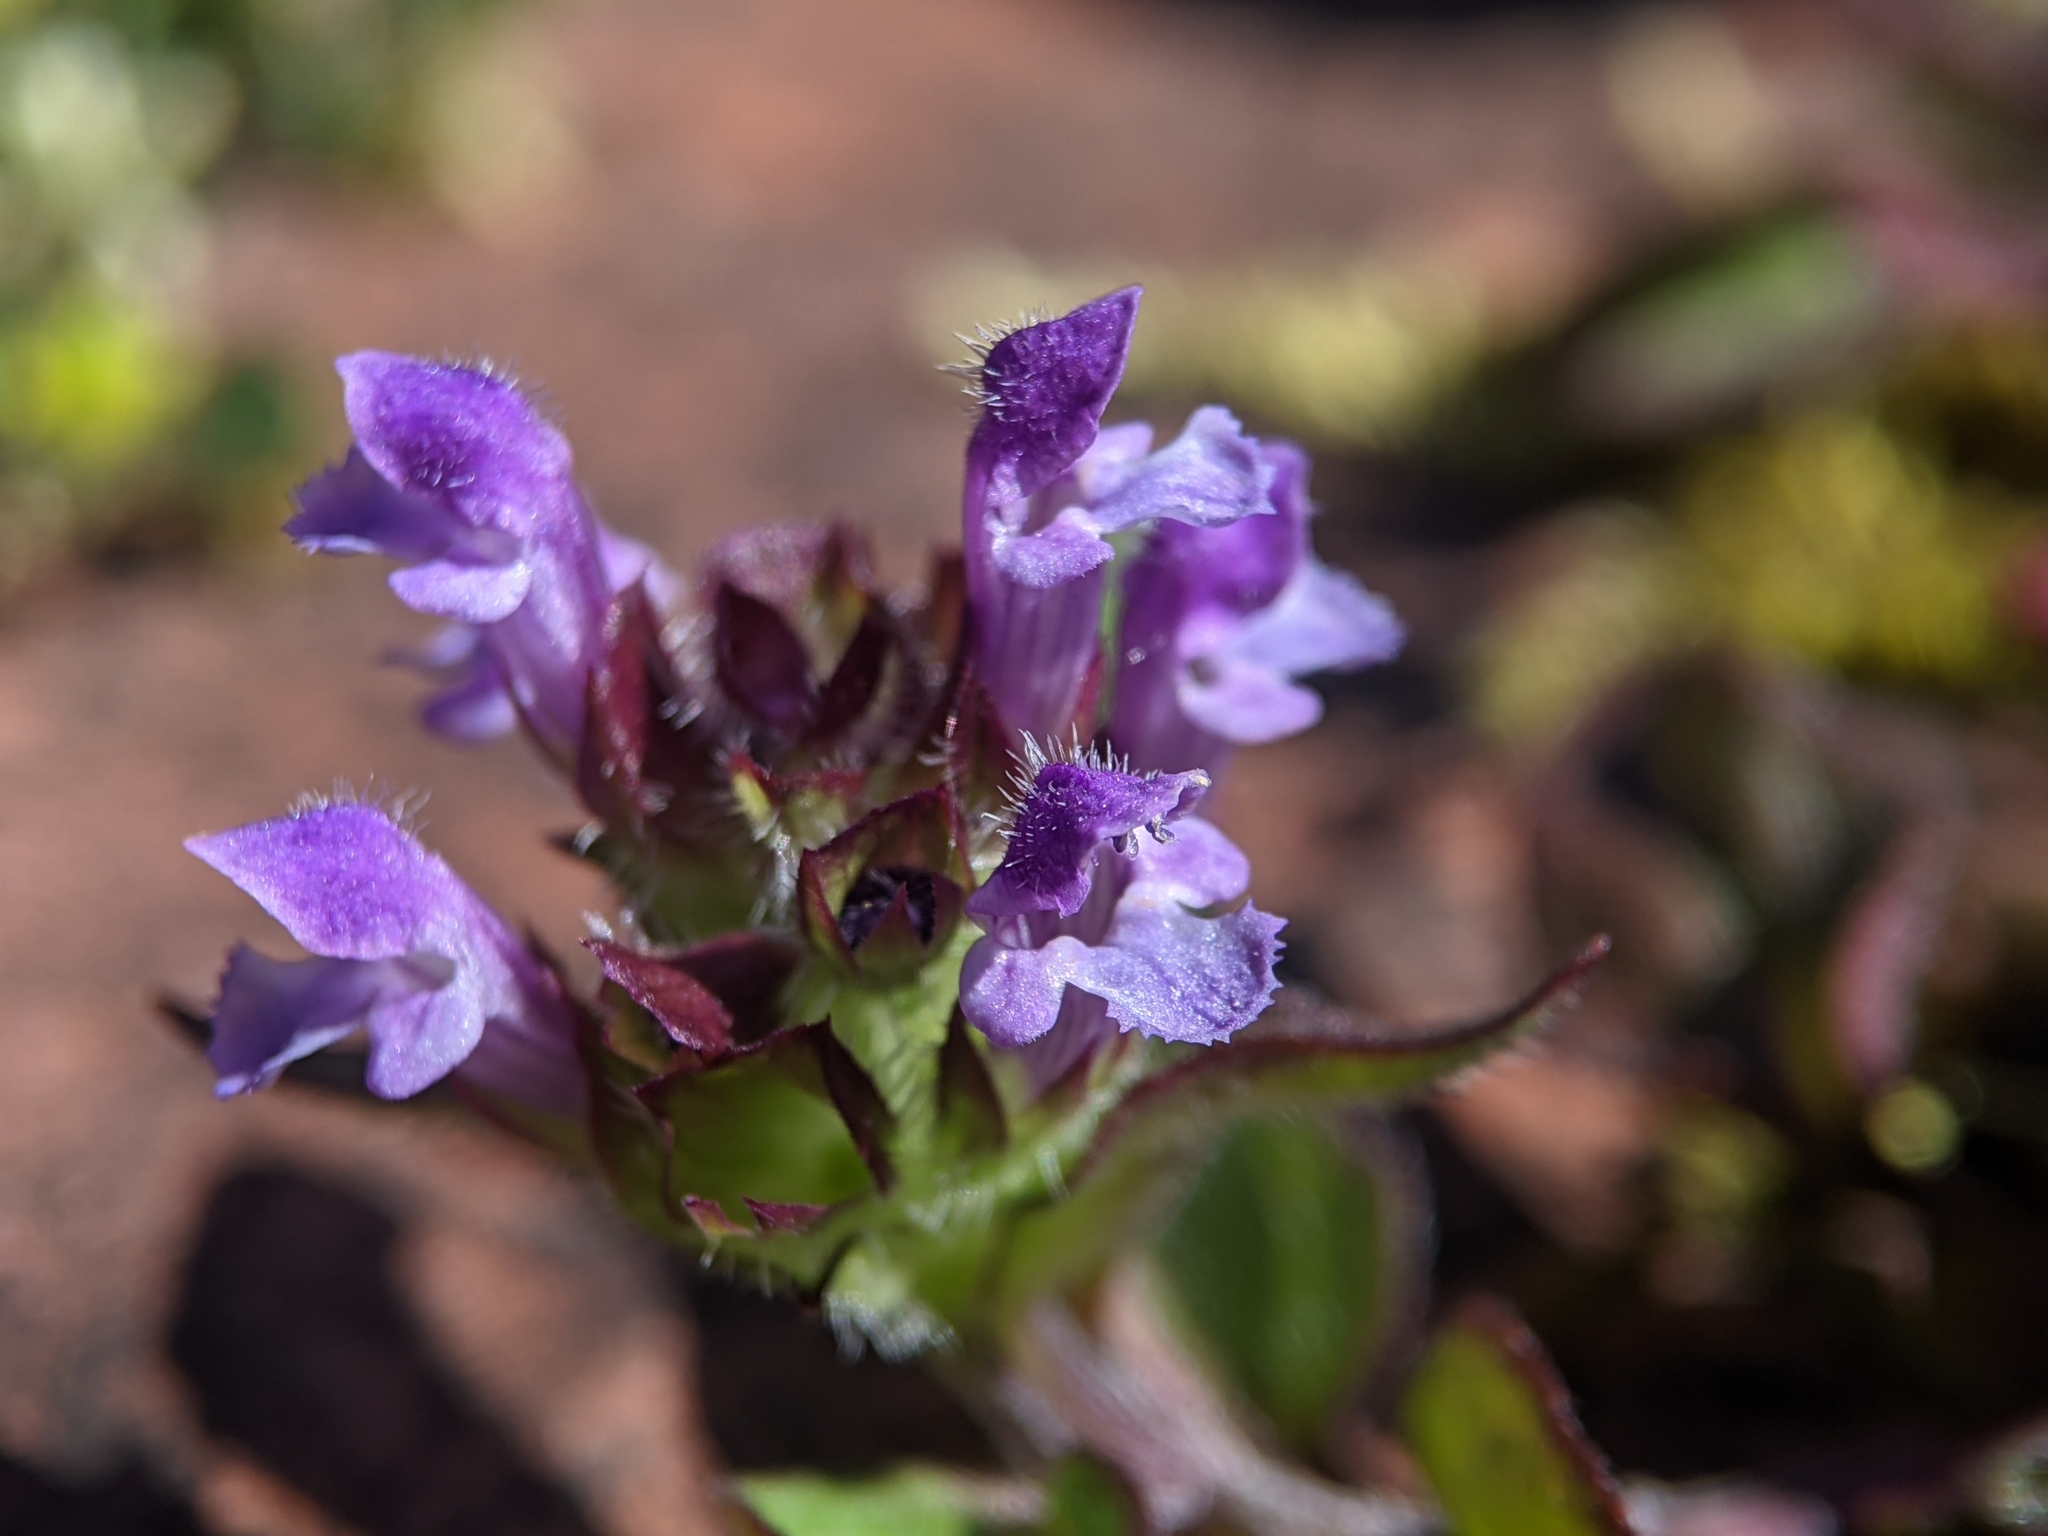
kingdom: Plantae
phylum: Tracheophyta
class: Magnoliopsida
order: Lamiales
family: Lamiaceae
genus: Prunella
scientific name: Prunella vulgaris
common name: Heal-all
